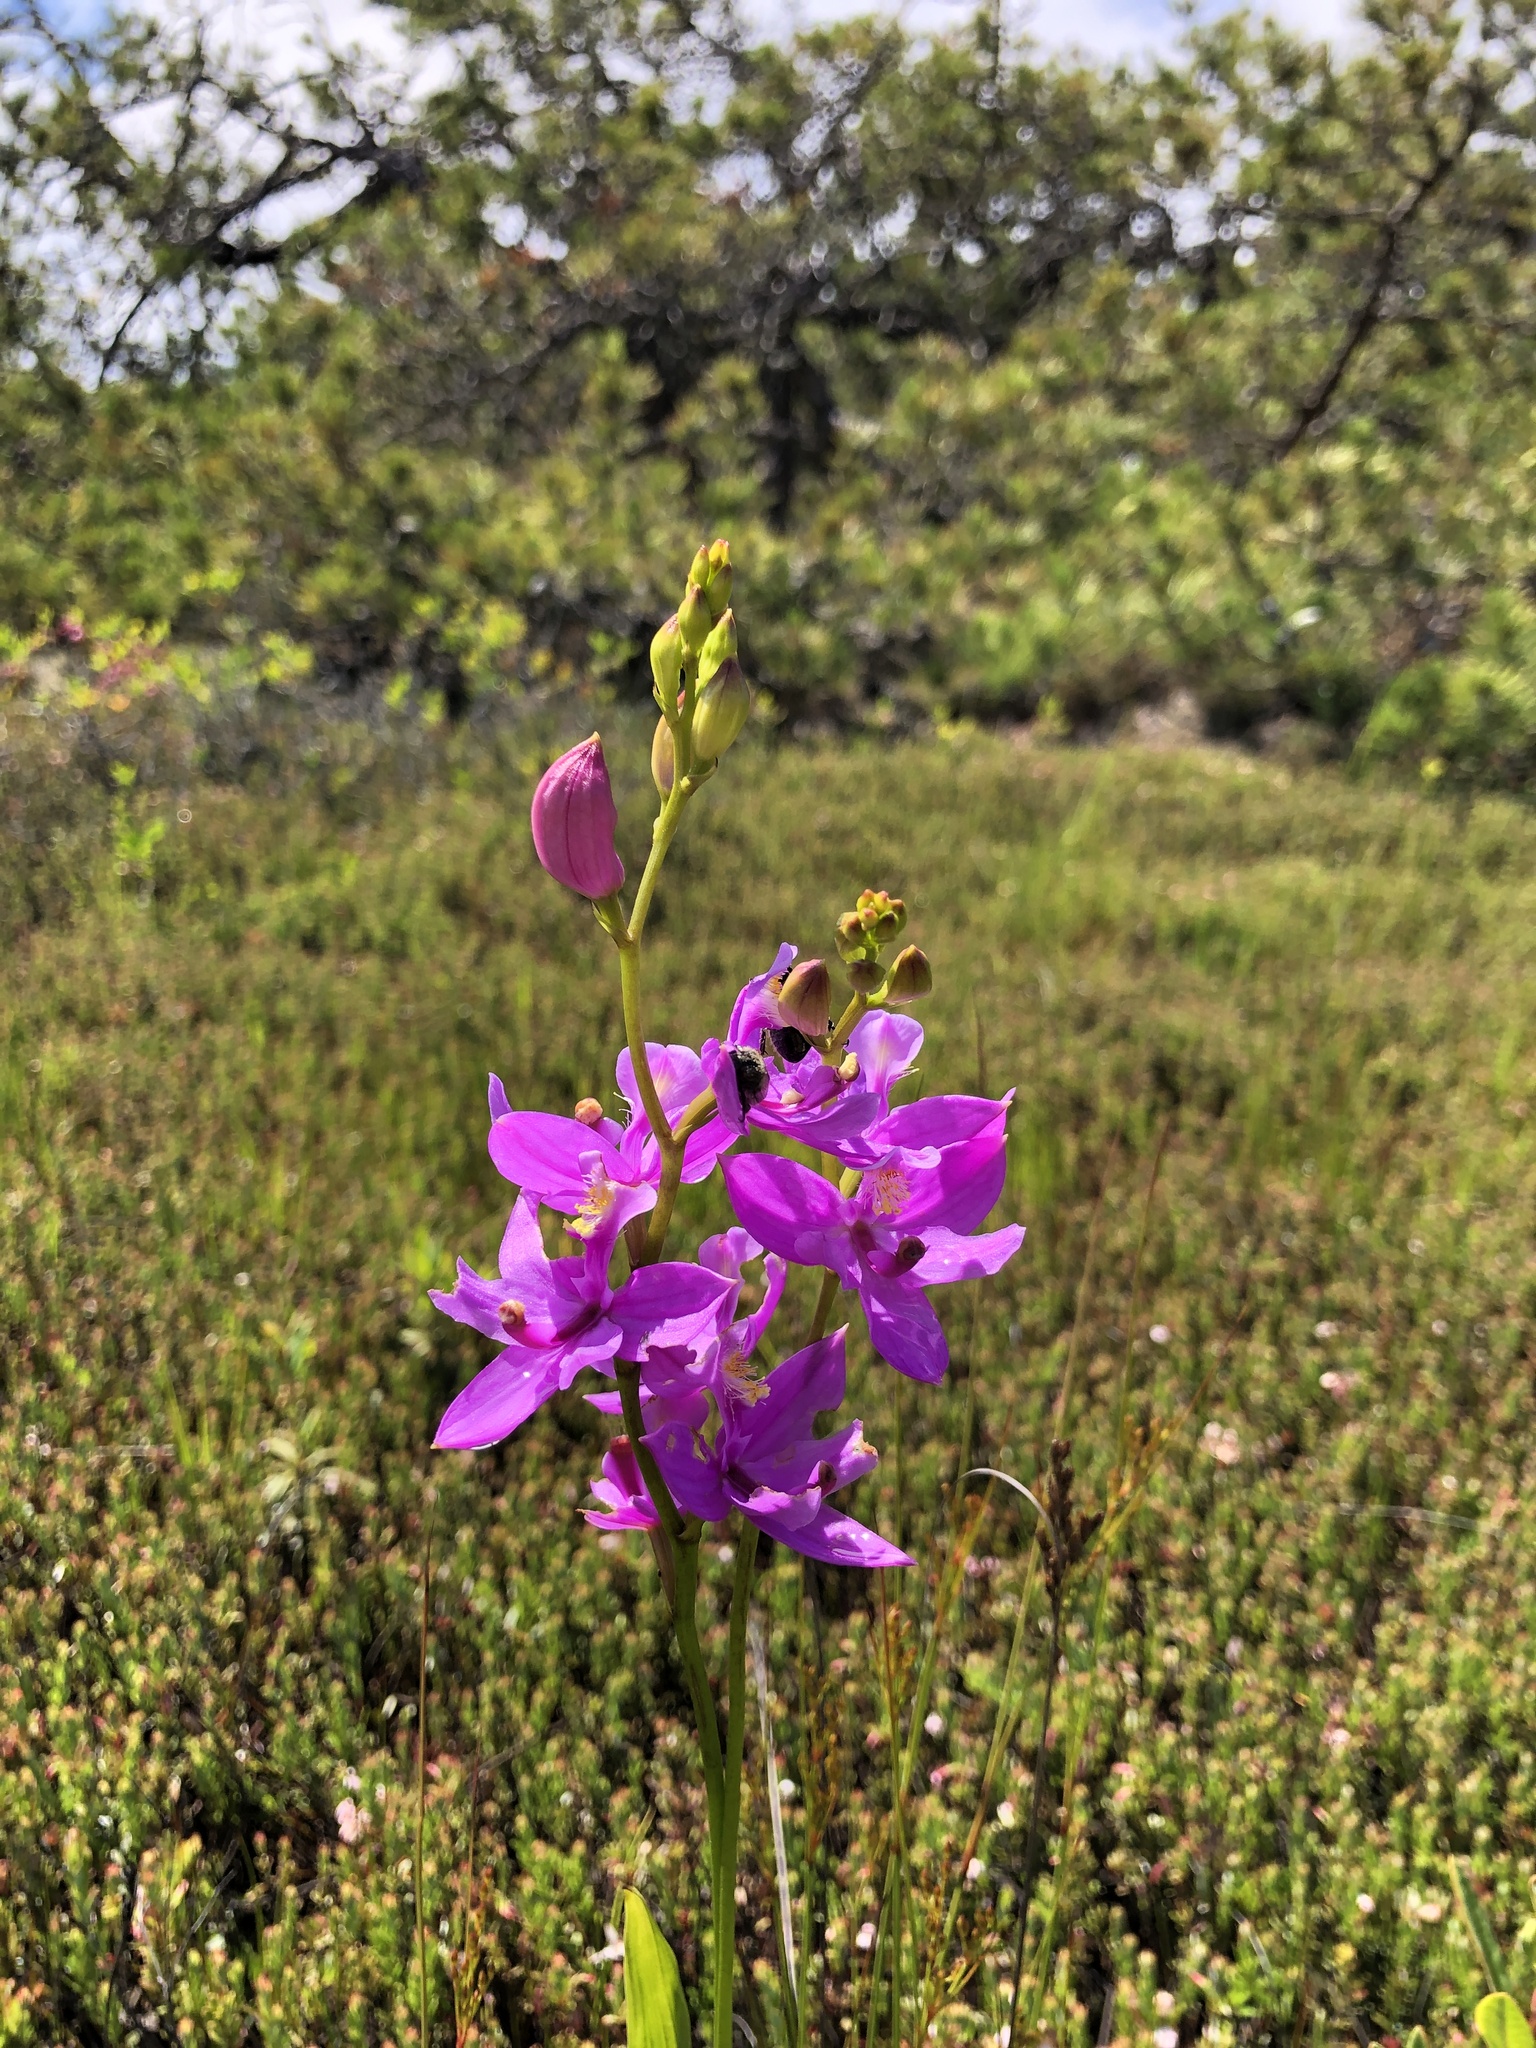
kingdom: Plantae
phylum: Tracheophyta
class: Liliopsida
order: Asparagales
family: Orchidaceae
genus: Calopogon
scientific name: Calopogon tuberosus
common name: Grass-pink
